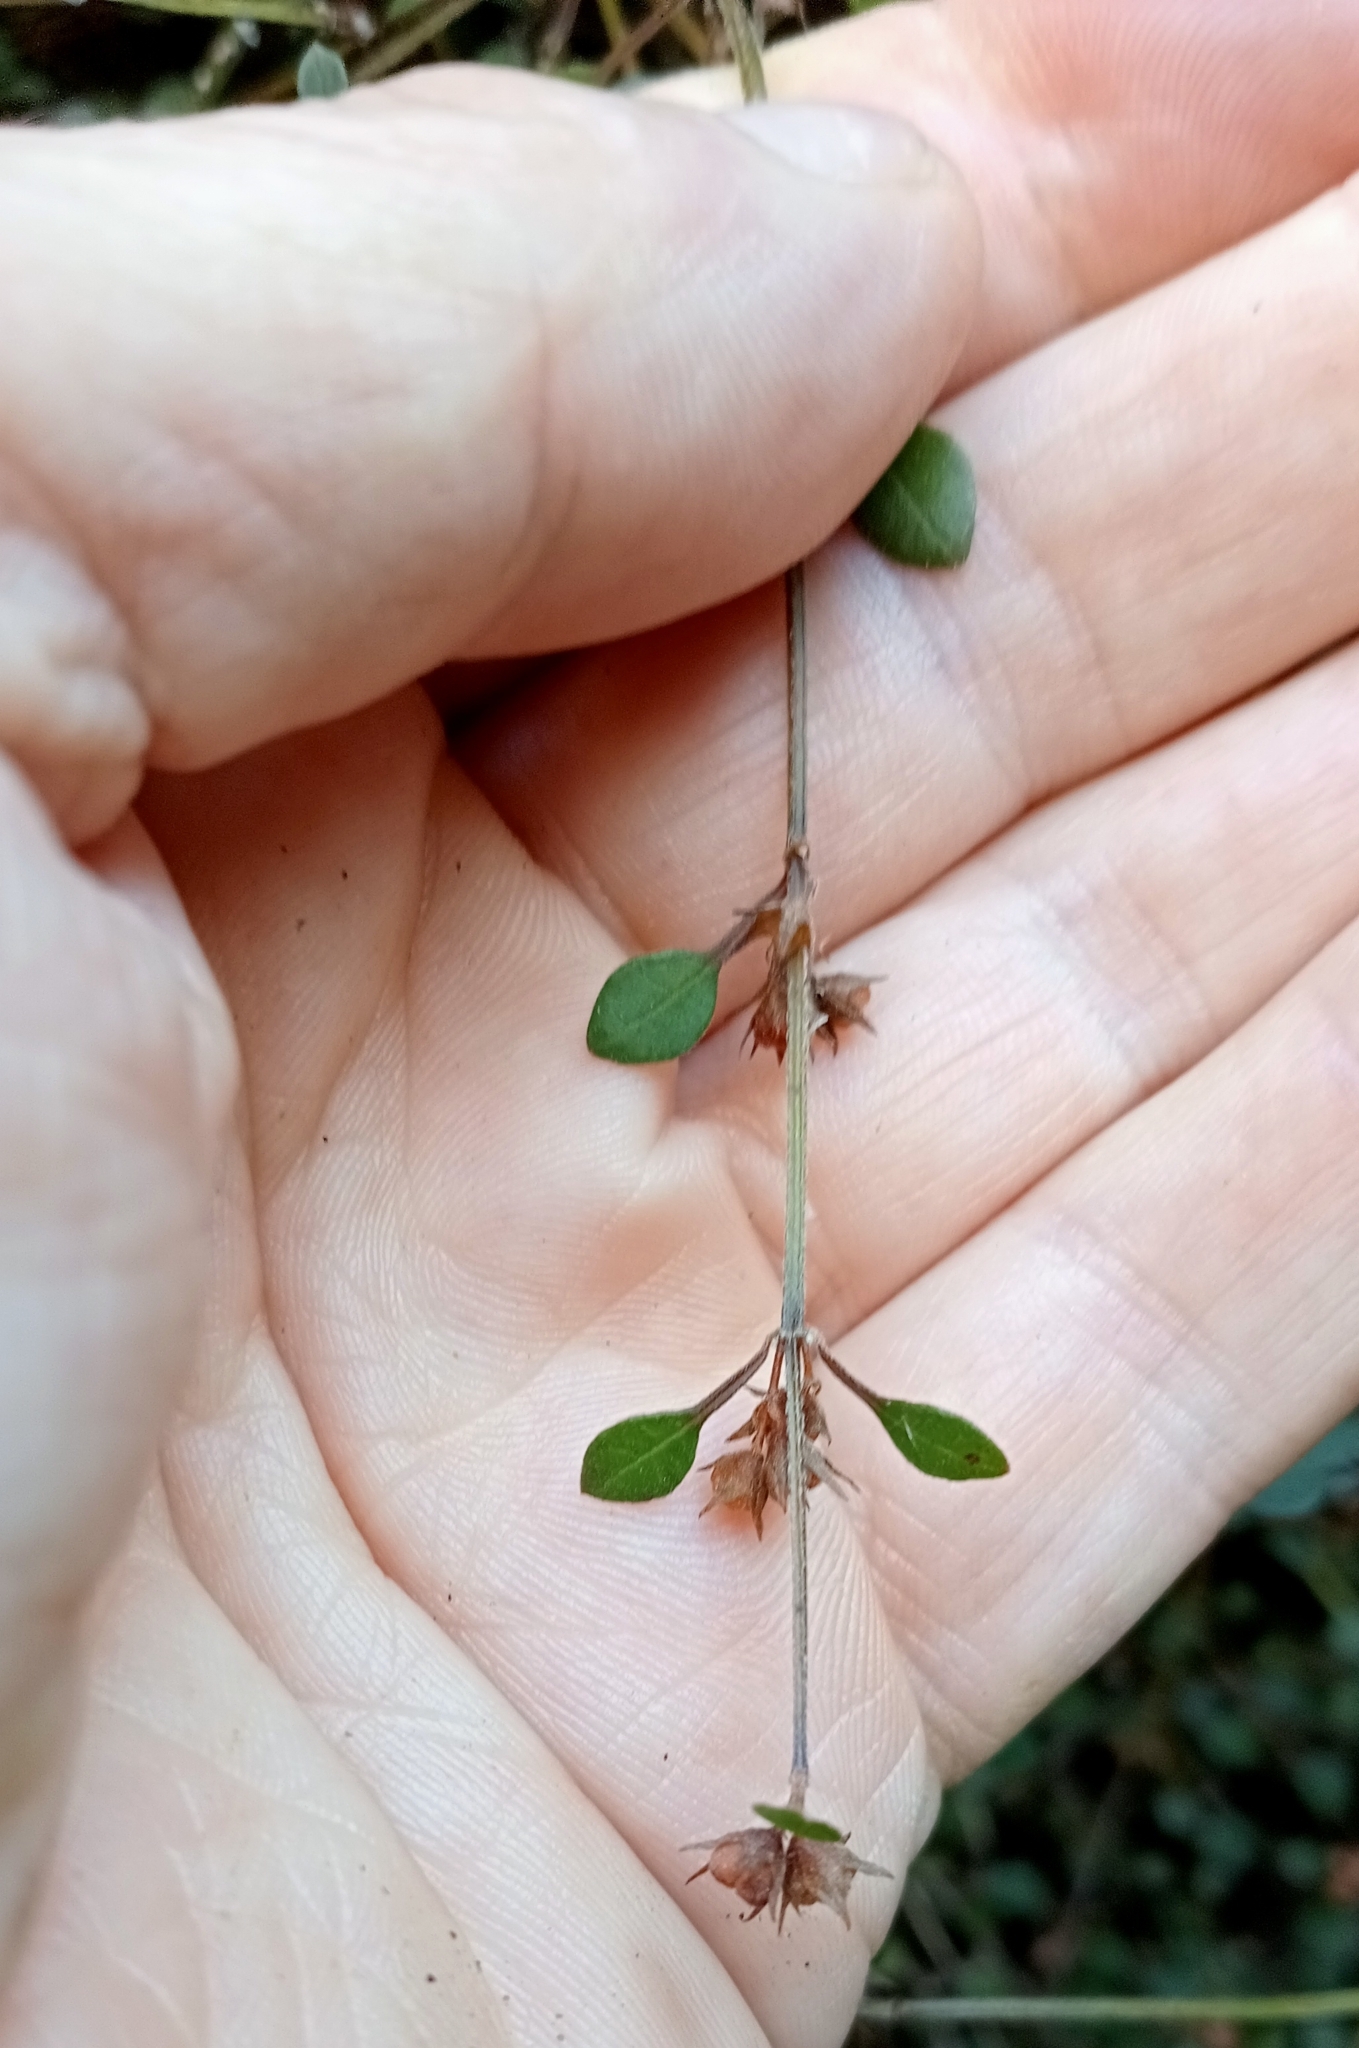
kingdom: Plantae
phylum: Tracheophyta
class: Magnoliopsida
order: Lamiales
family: Lamiaceae
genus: Teucrium
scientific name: Teucrium parvifolium
